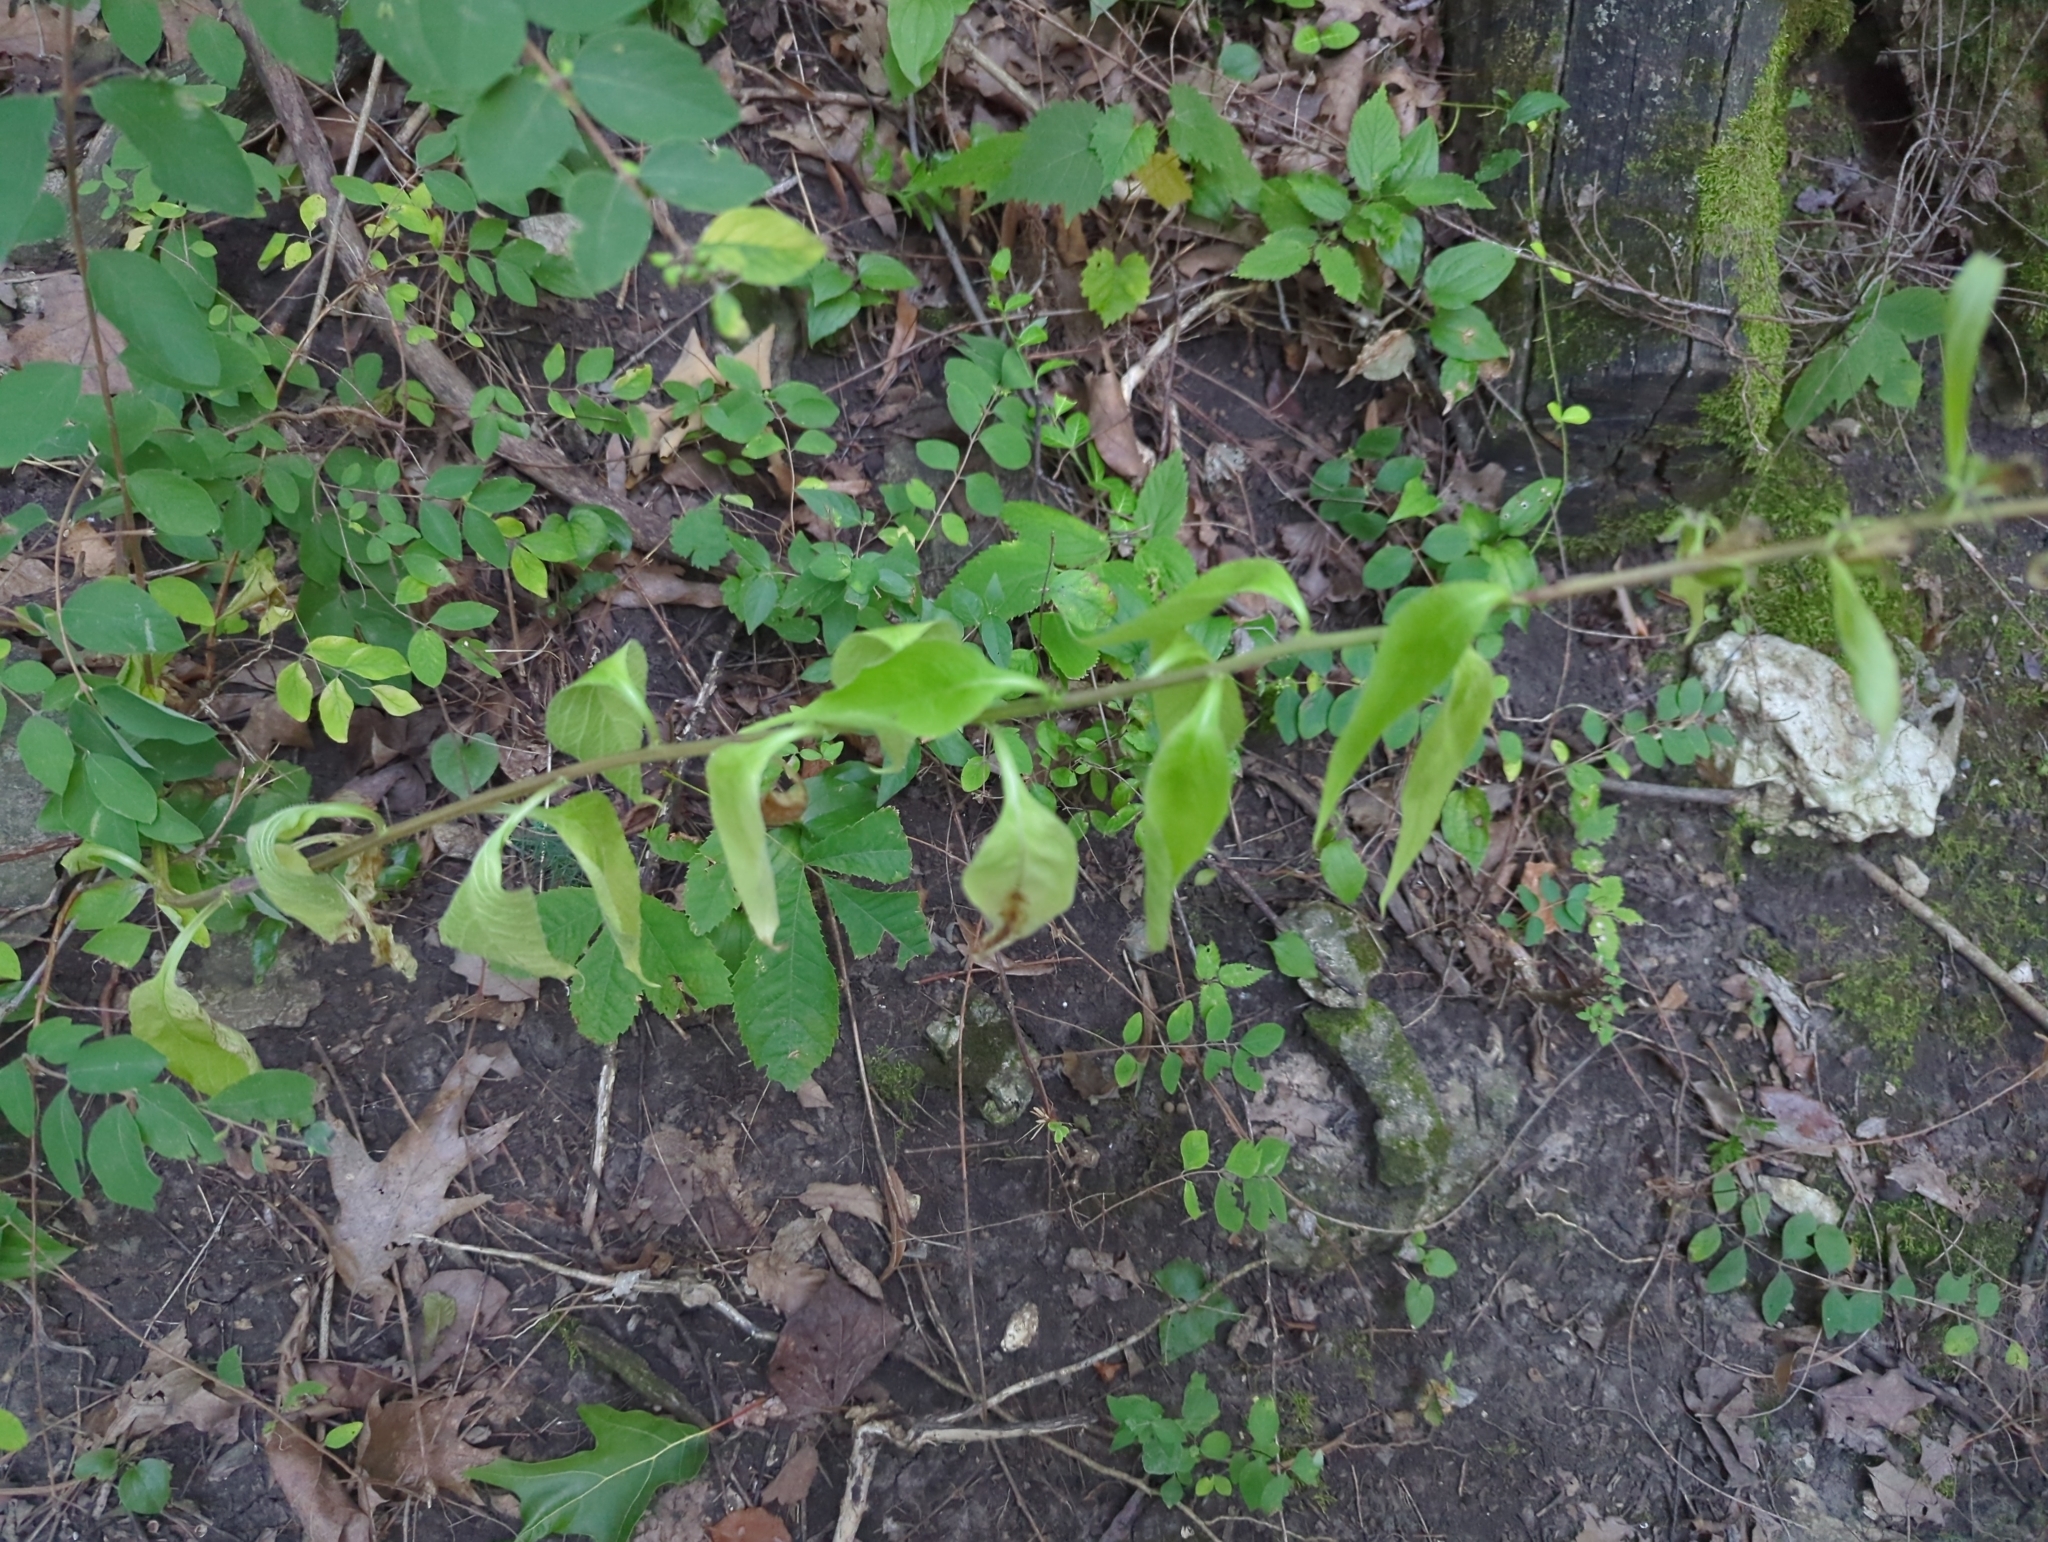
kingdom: Plantae
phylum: Tracheophyta
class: Magnoliopsida
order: Asterales
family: Campanulaceae
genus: Campanulastrum
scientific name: Campanulastrum americanum
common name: American bellflower
